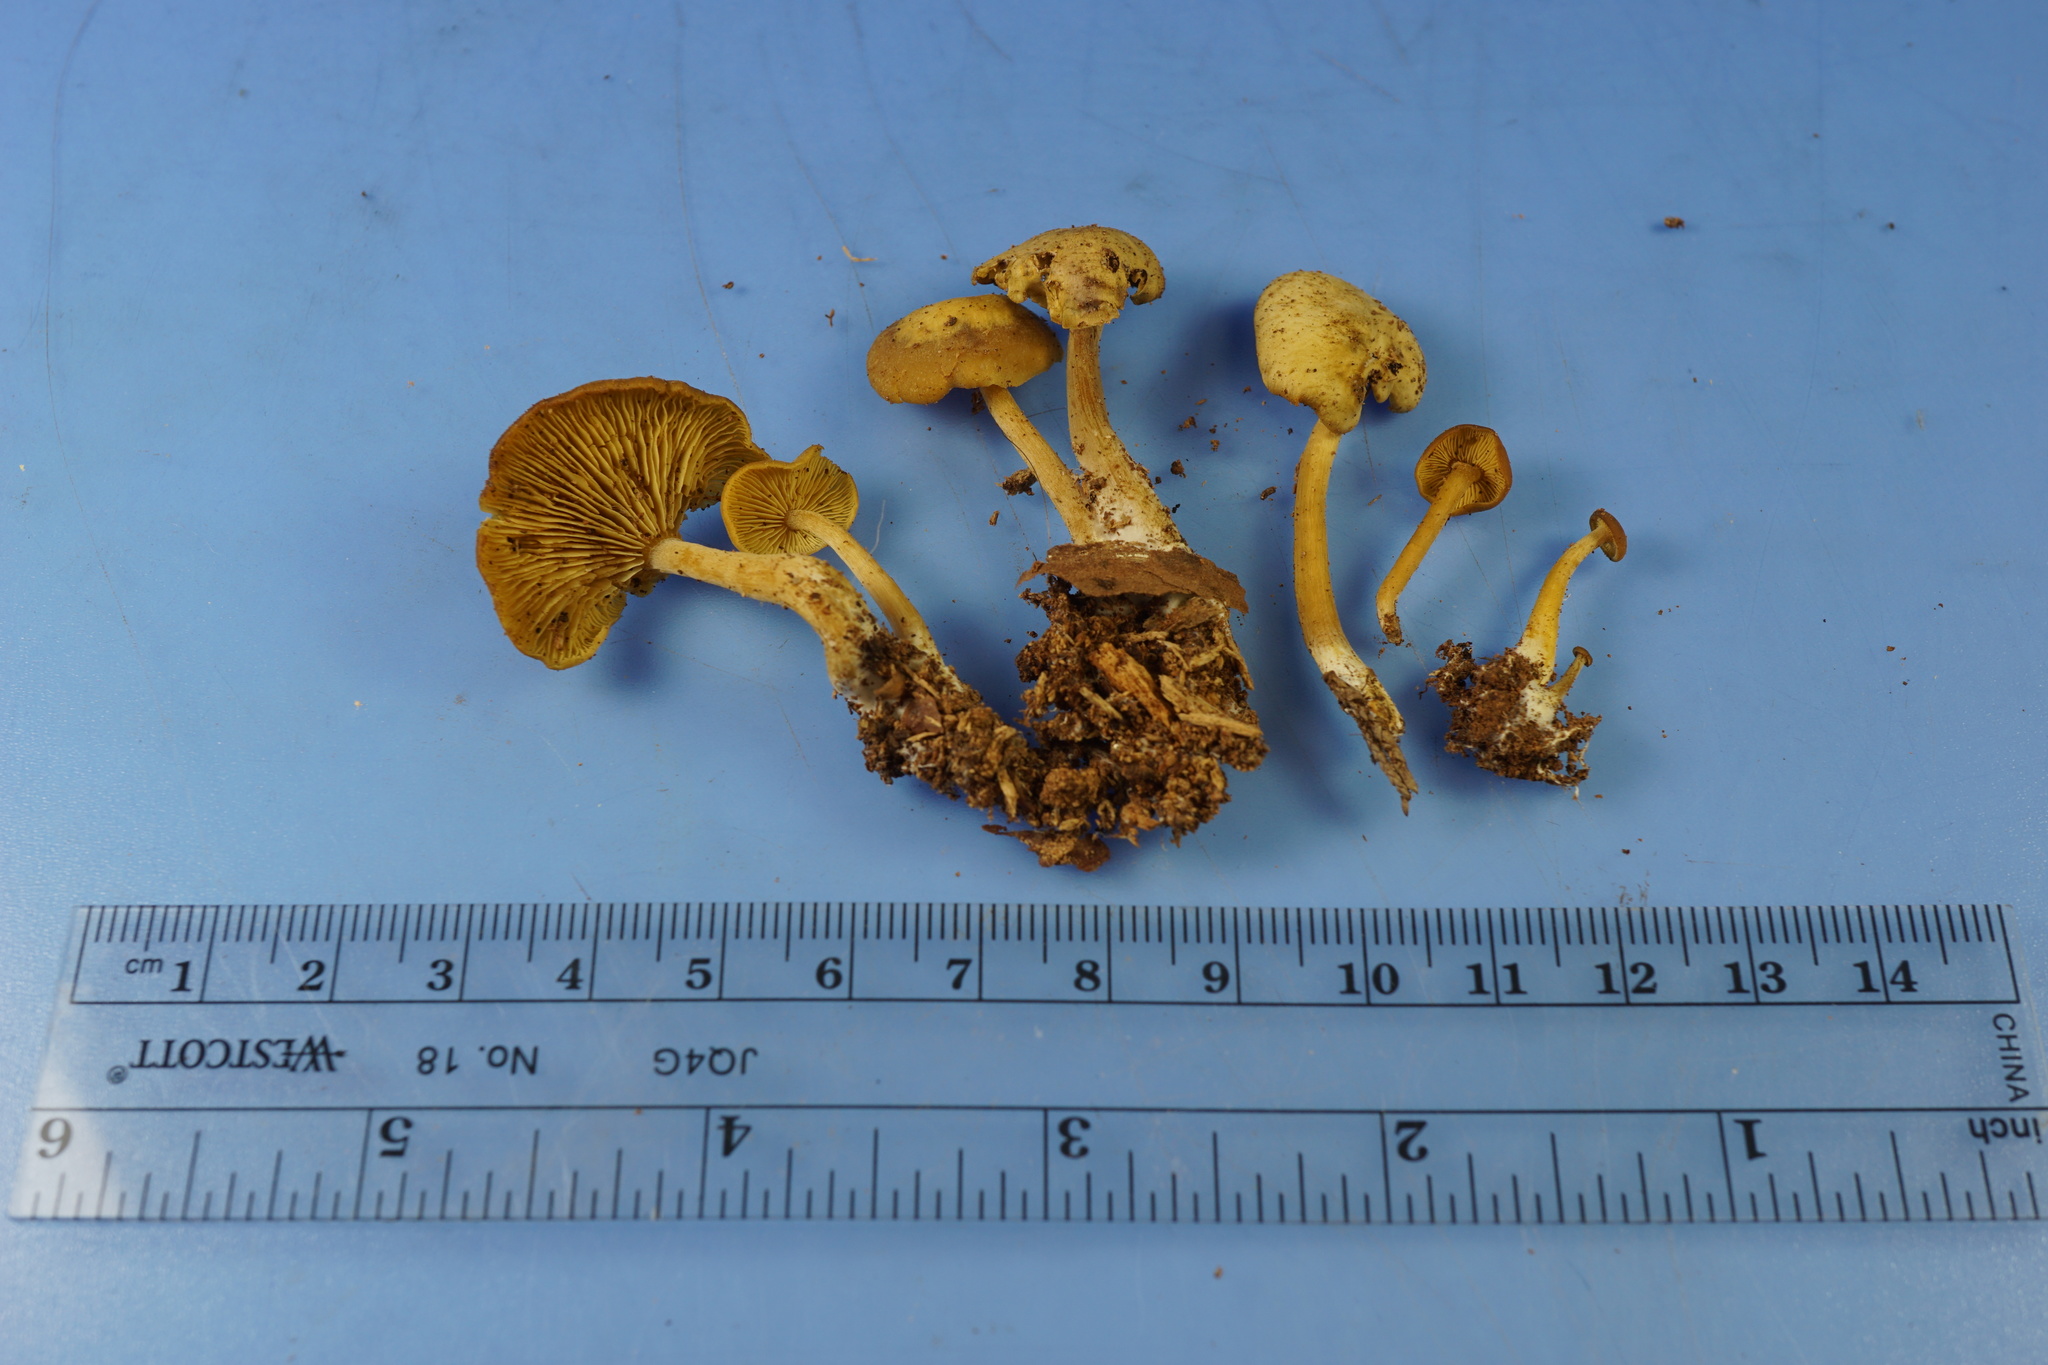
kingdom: Fungi
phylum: Basidiomycota
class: Agaricomycetes
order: Agaricales
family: Callistosporiaceae
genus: Callistosporium
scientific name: Callistosporium luteo-olivaceum
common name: Olive lute
